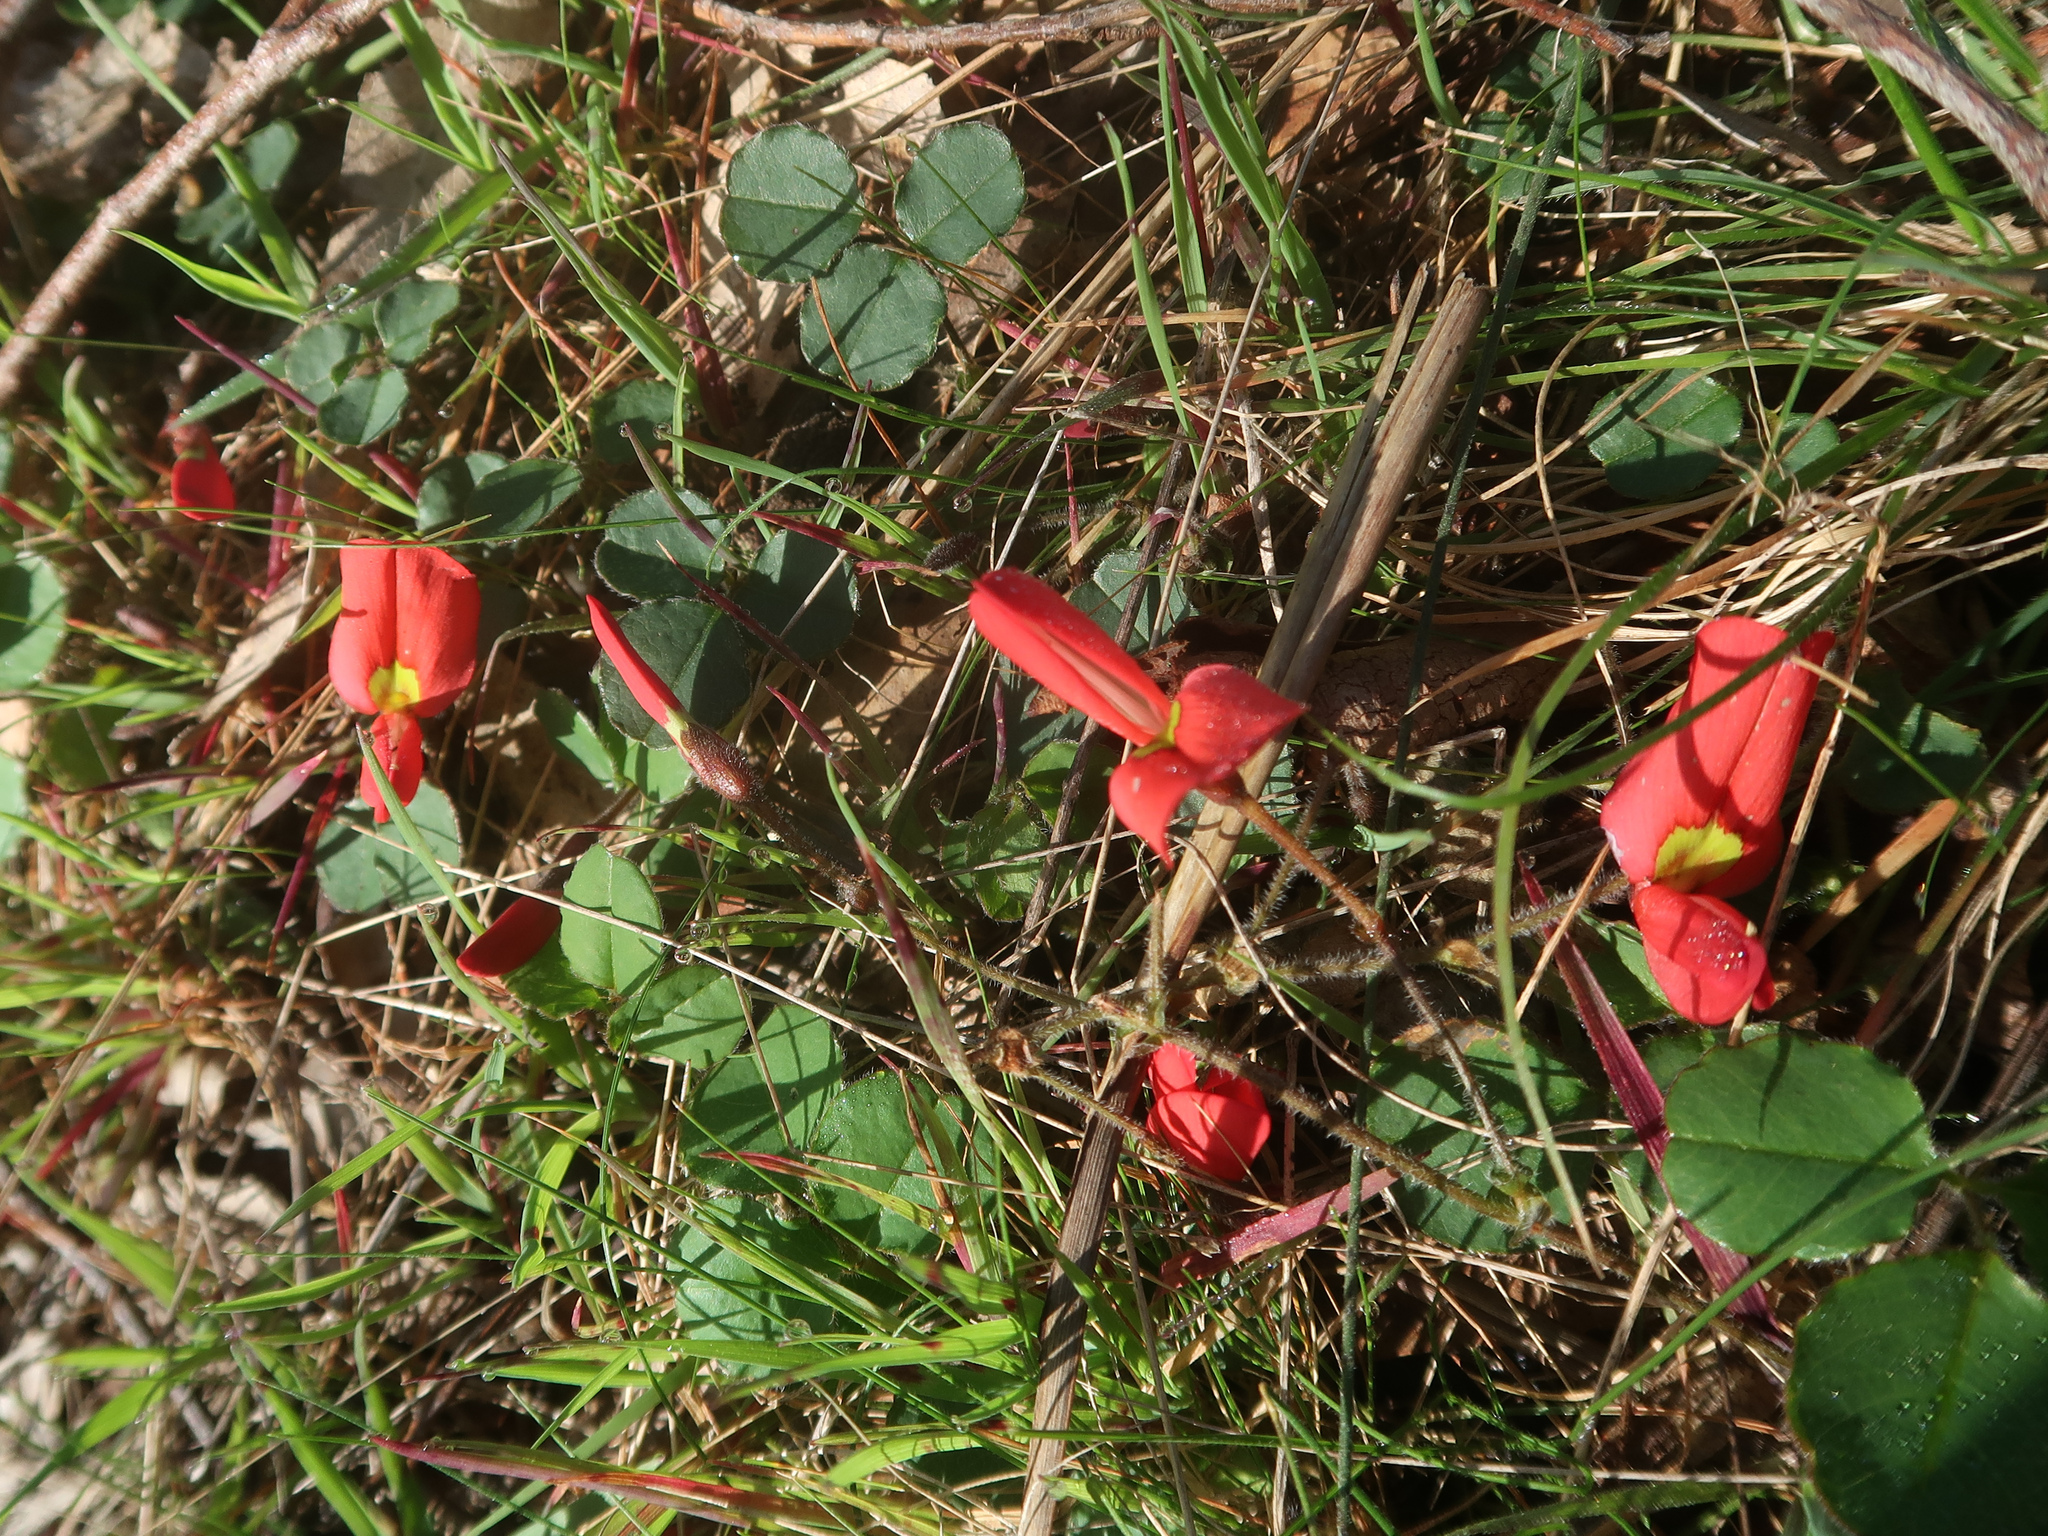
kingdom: Plantae
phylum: Tracheophyta
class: Magnoliopsida
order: Fabales
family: Fabaceae
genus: Kennedia
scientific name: Kennedia prostrata
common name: Running-postman
